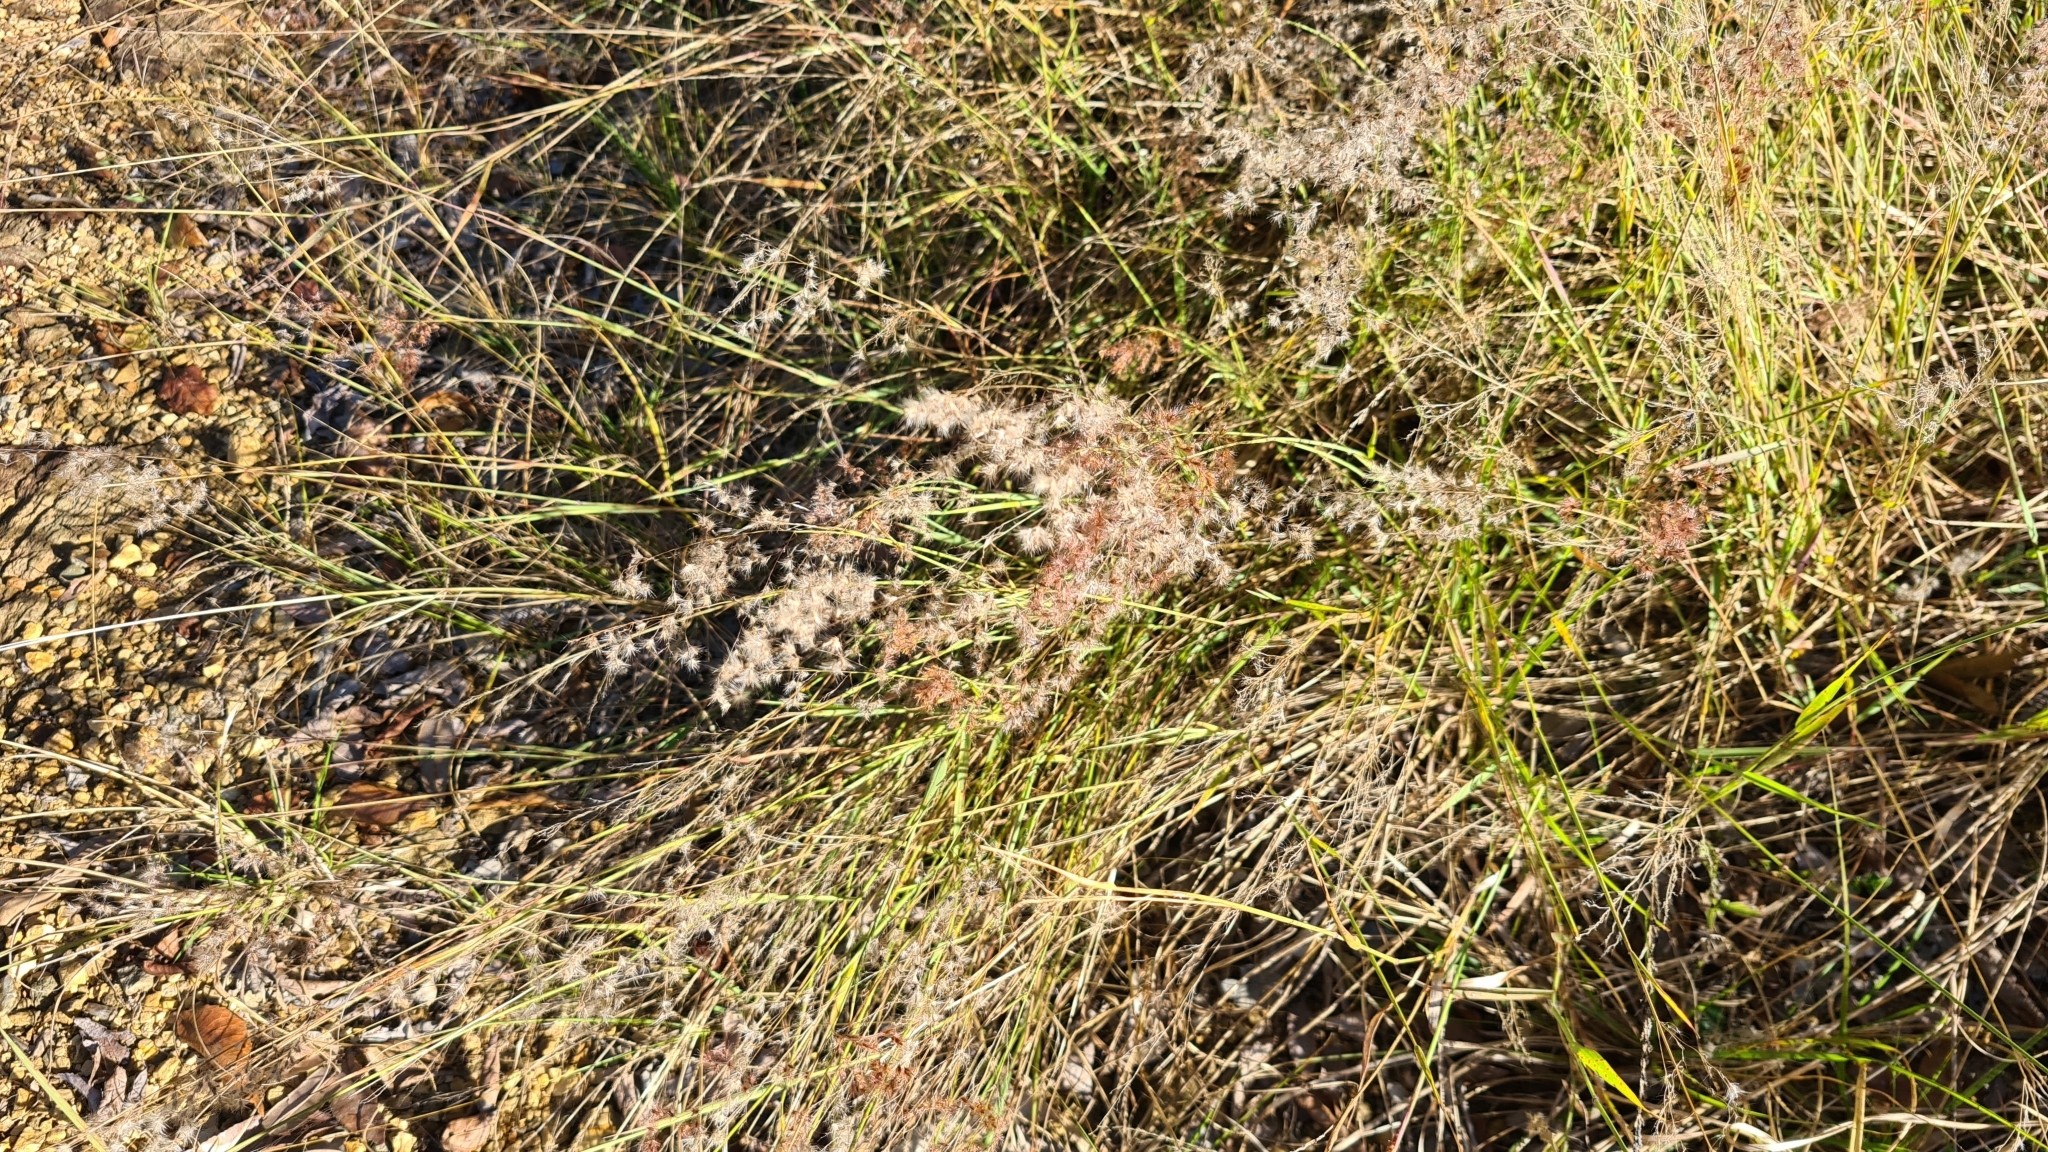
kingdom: Plantae
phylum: Tracheophyta
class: Liliopsida
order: Poales
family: Poaceae
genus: Melinis
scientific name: Melinis repens
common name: Rose natal grass
